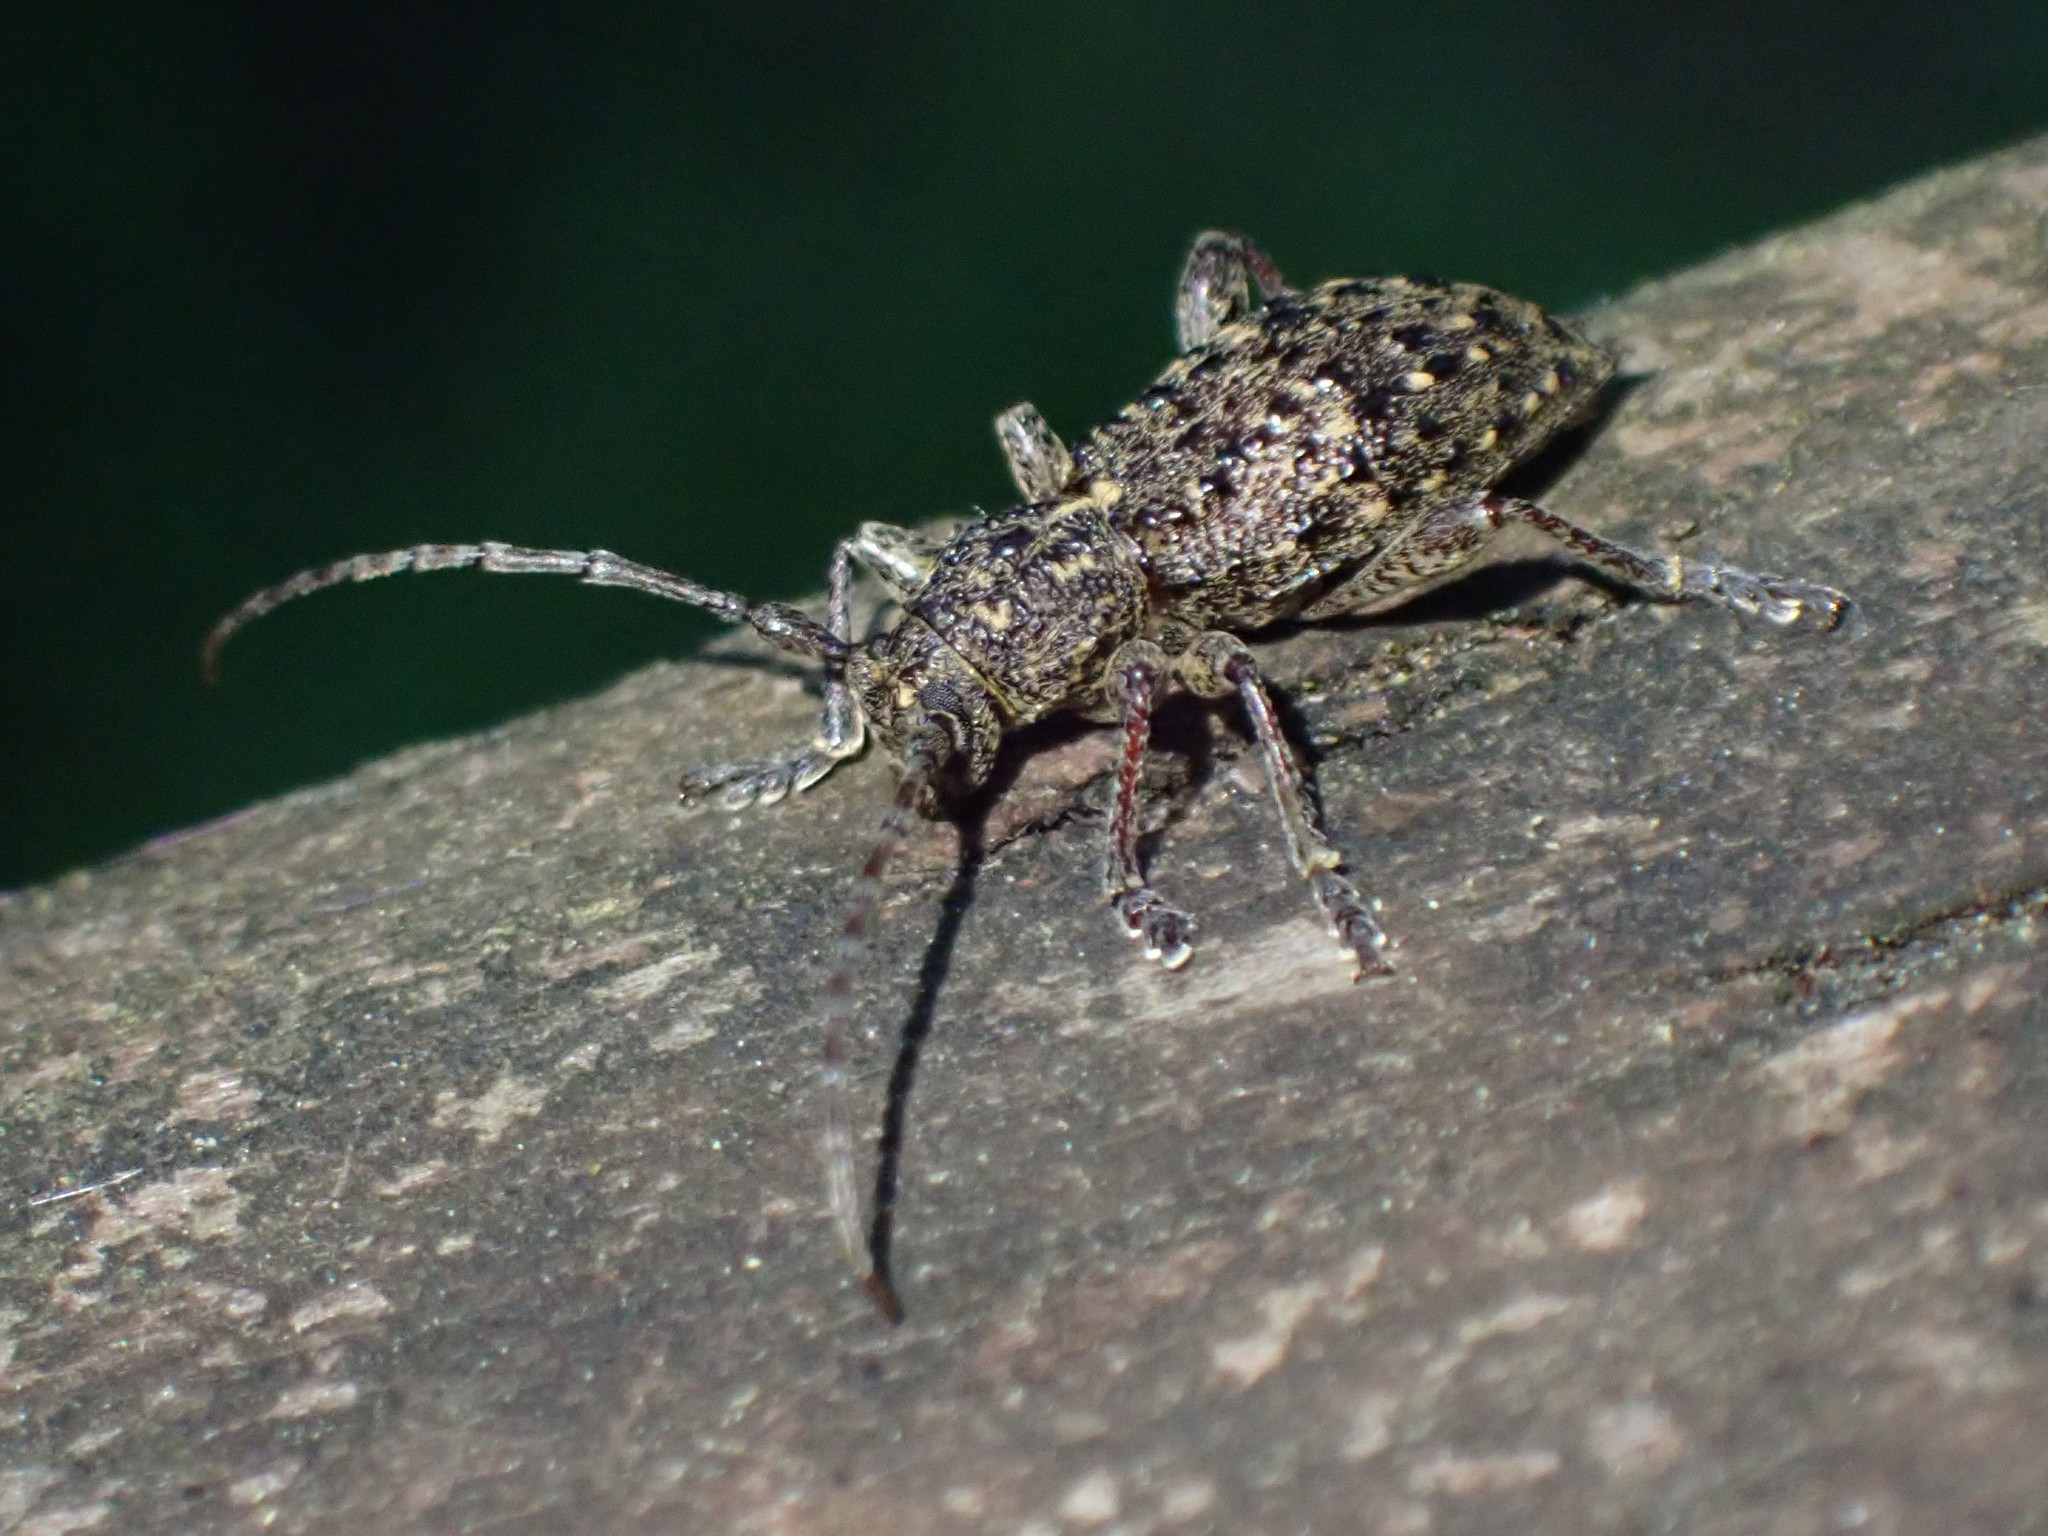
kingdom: Animalia
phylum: Arthropoda
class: Insecta
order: Coleoptera
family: Cerambycidae
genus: Plectrura
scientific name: Plectrura spinicauda
